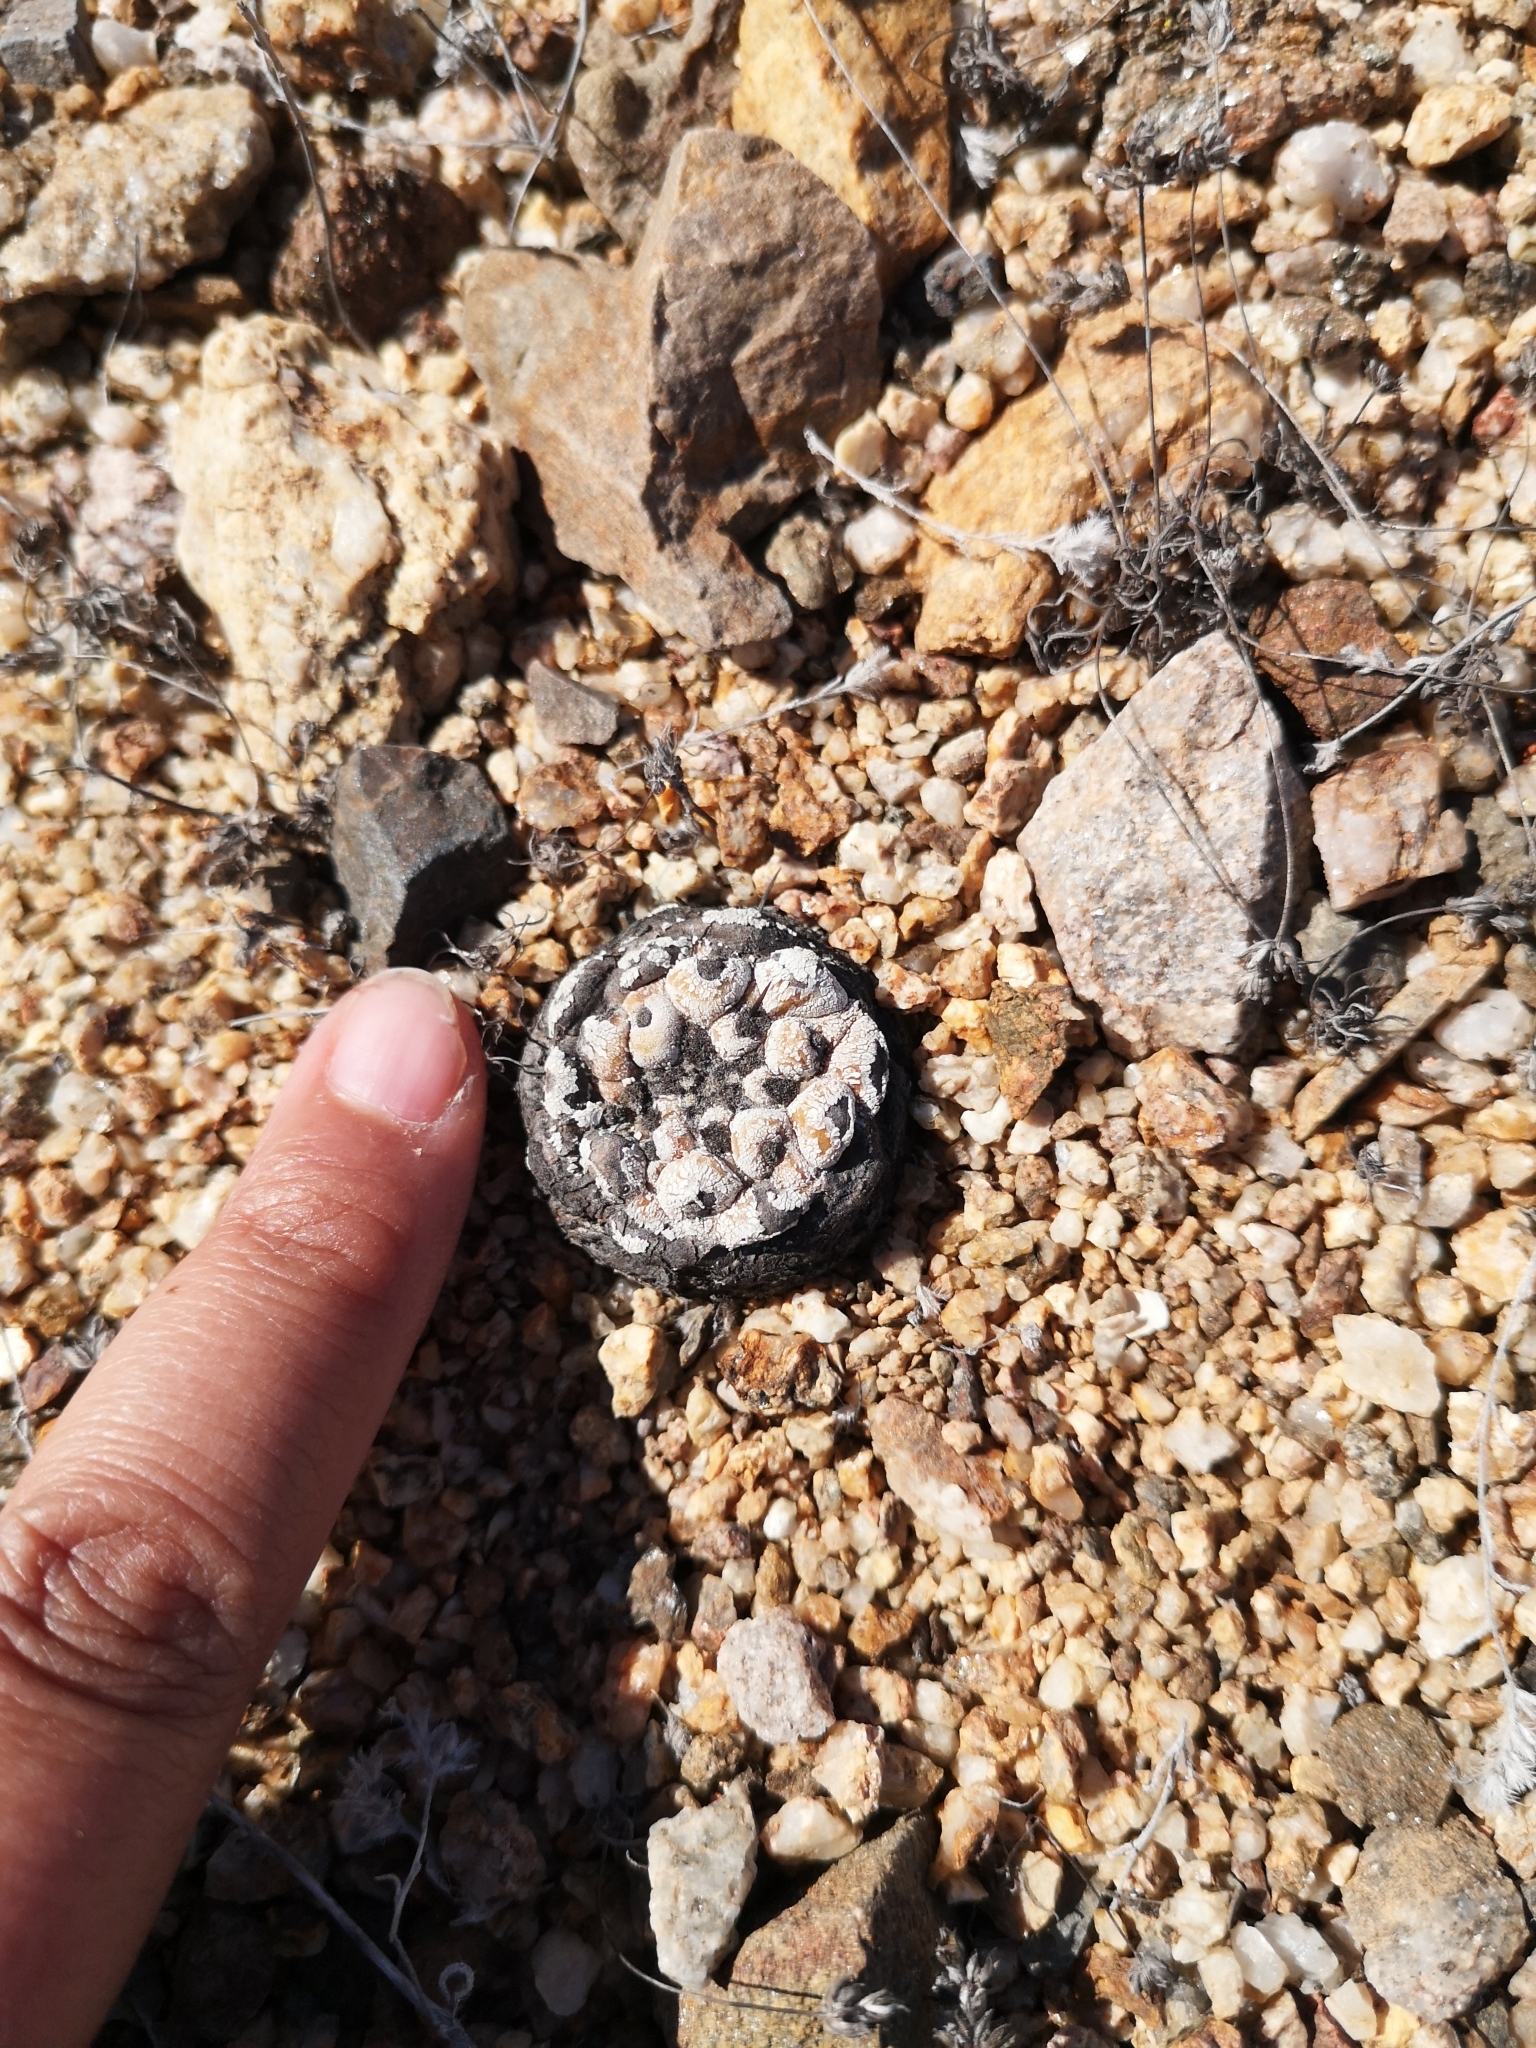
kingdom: Plantae
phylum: Tracheophyta
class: Magnoliopsida
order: Caryophyllales
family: Cactaceae
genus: Copiapoa
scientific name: Copiapoa cinerea
